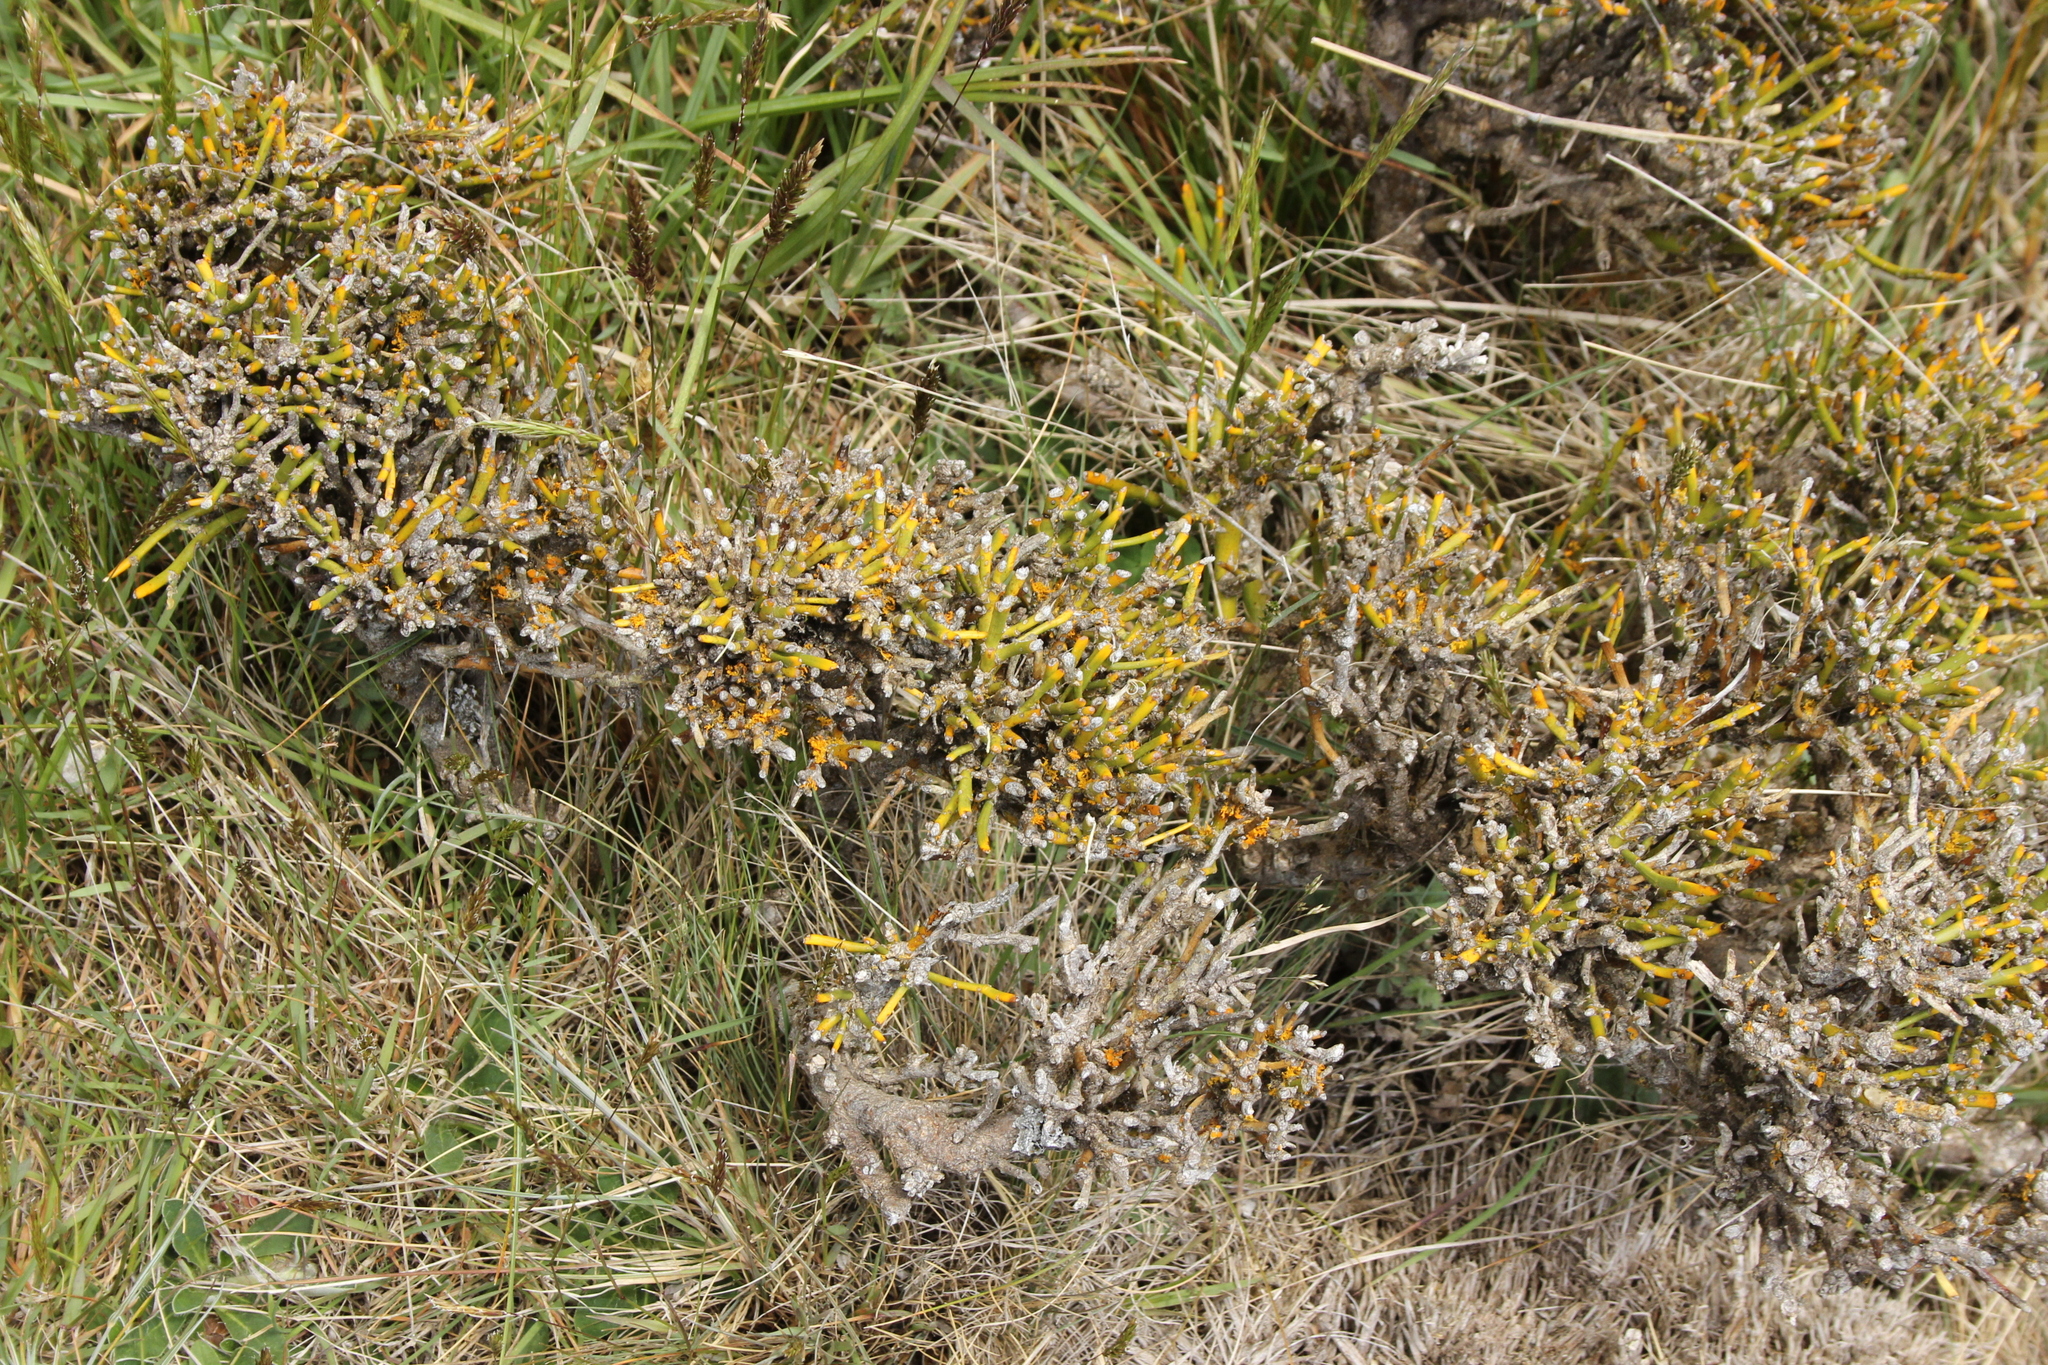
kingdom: Plantae
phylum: Tracheophyta
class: Magnoliopsida
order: Fabales
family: Fabaceae
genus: Carmichaelia
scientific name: Carmichaelia petriei
